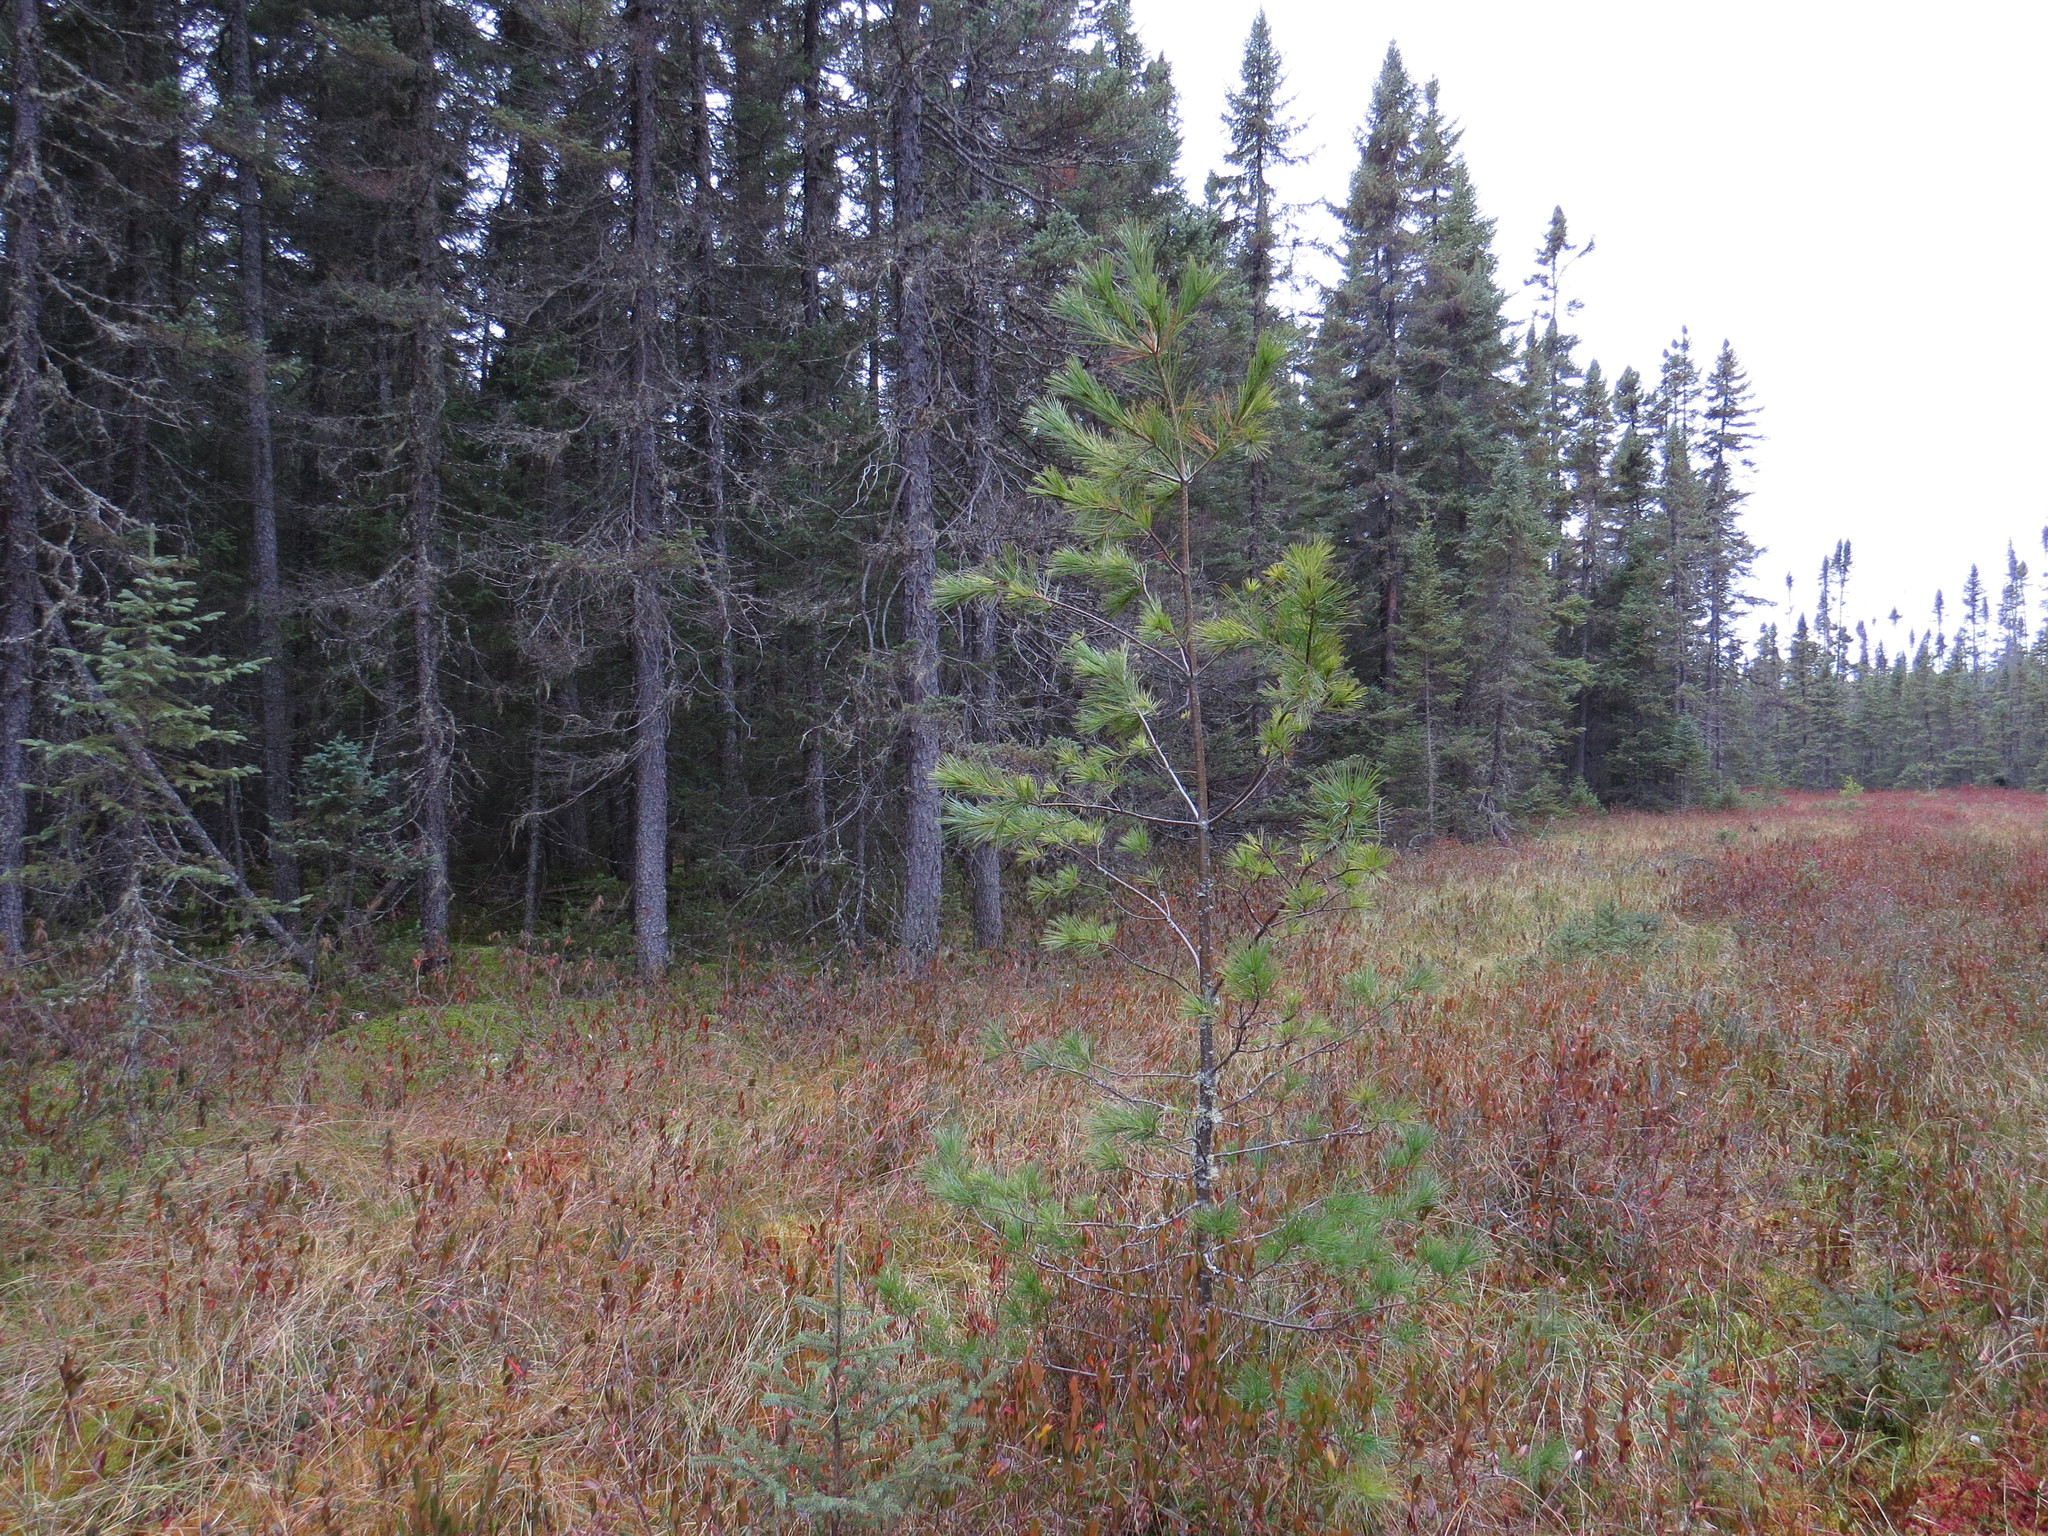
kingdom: Plantae
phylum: Tracheophyta
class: Pinopsida
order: Pinales
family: Pinaceae
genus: Pinus
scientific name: Pinus strobus
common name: Weymouth pine
